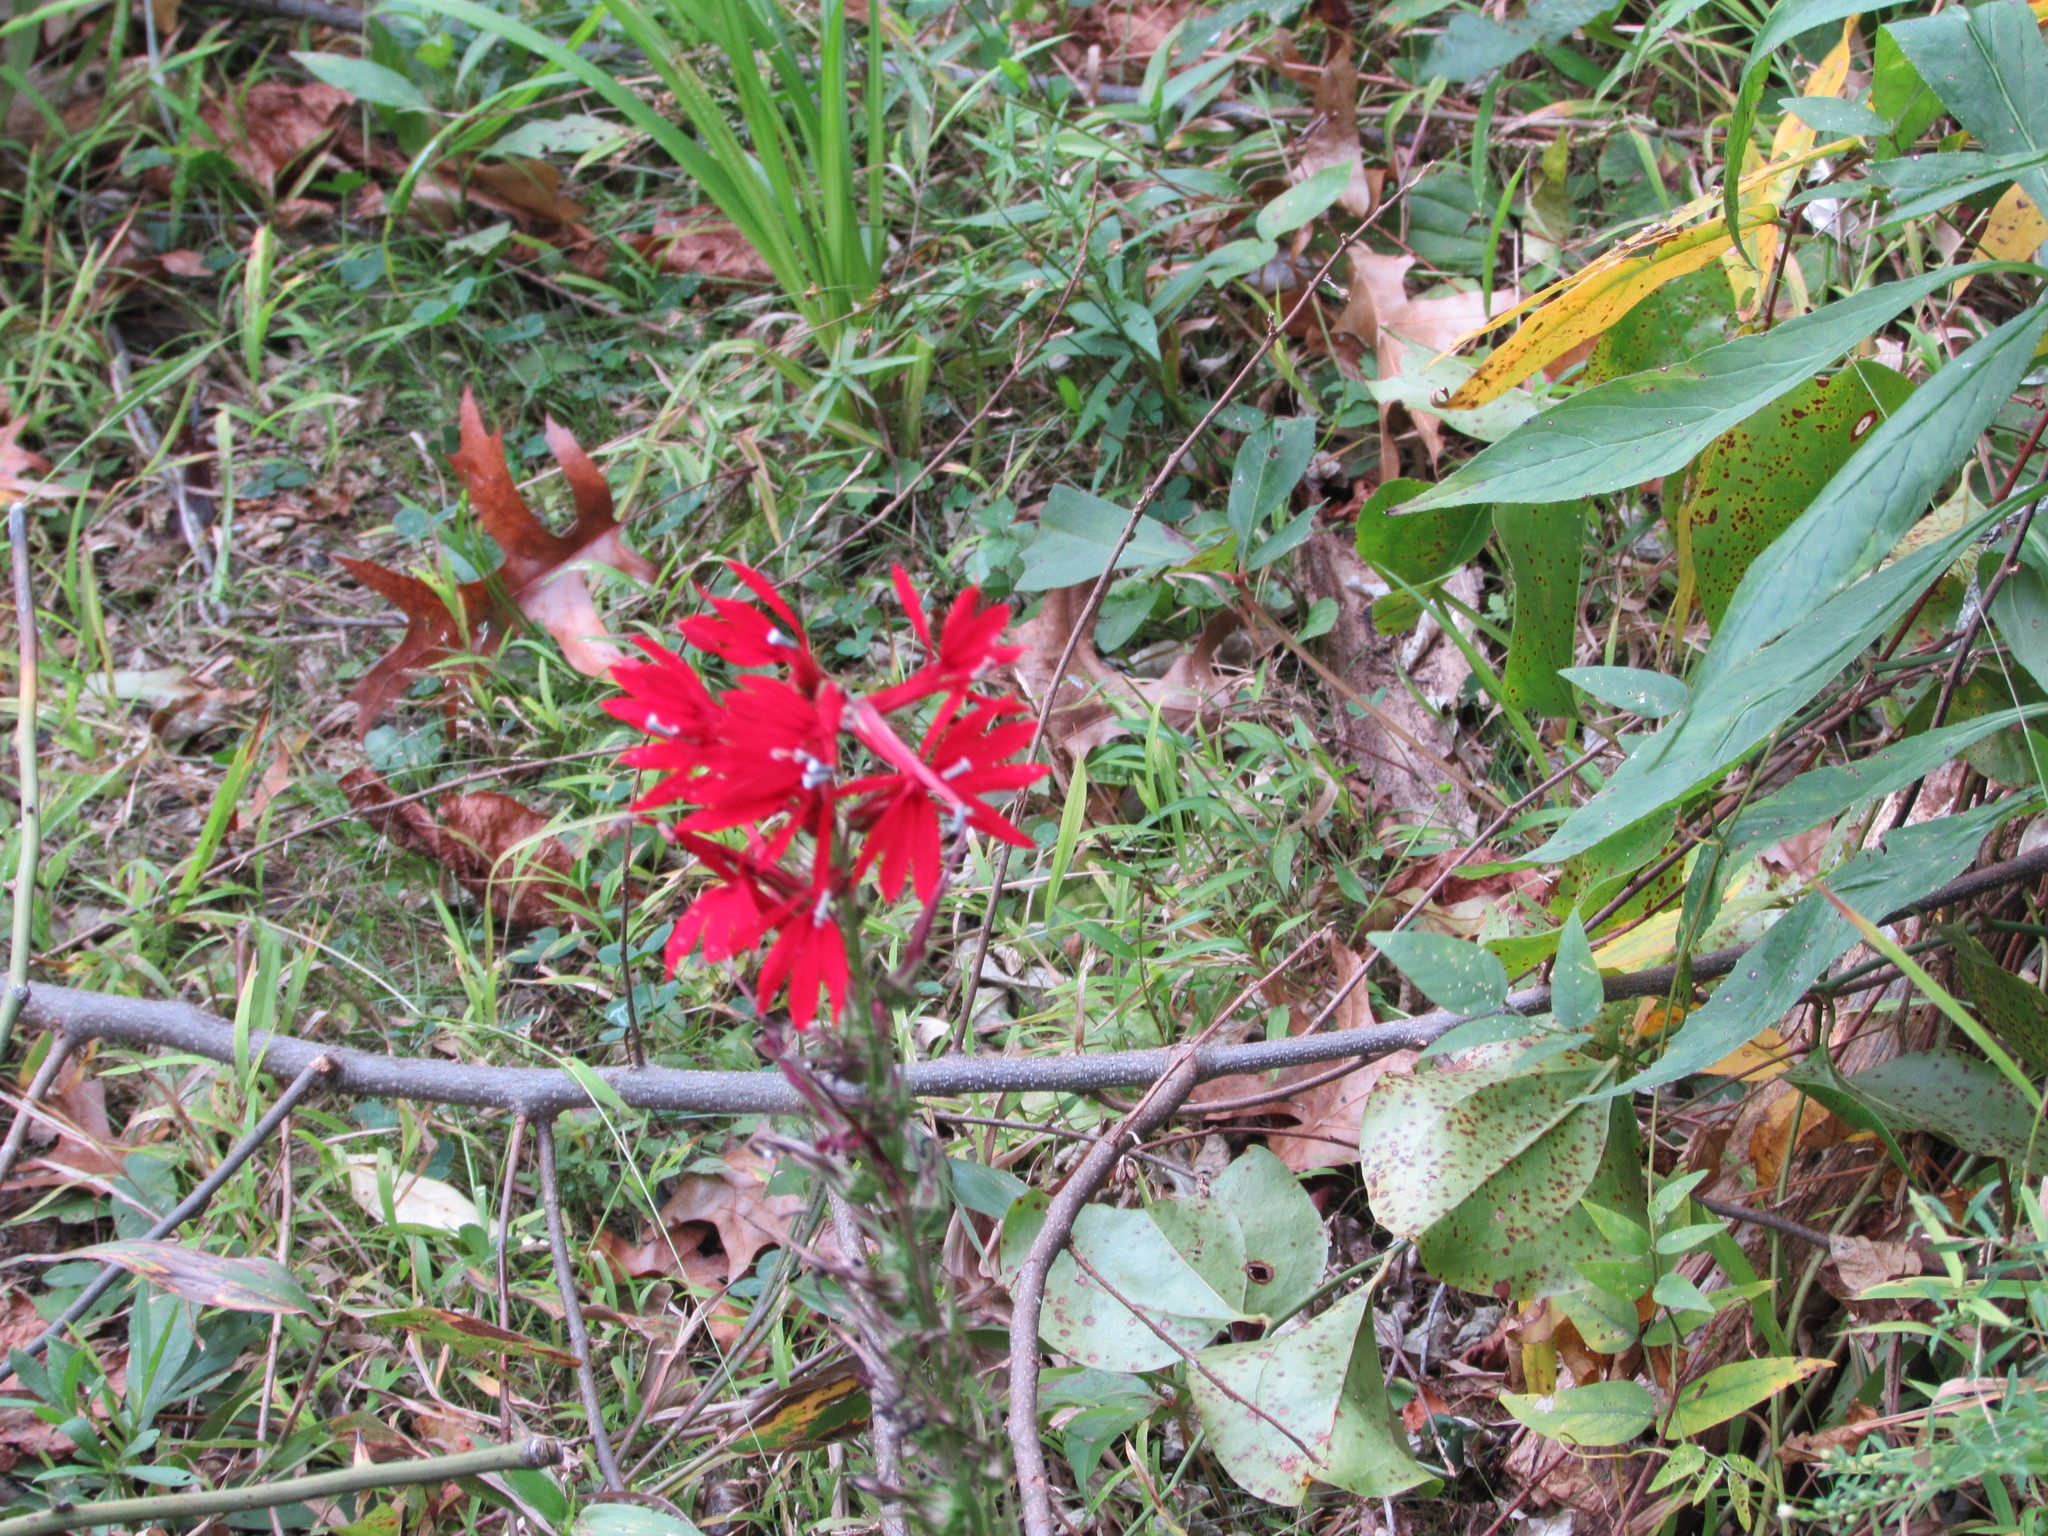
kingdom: Plantae
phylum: Tracheophyta
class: Magnoliopsida
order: Asterales
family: Campanulaceae
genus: Lobelia
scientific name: Lobelia cardinalis
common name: Cardinal flower
